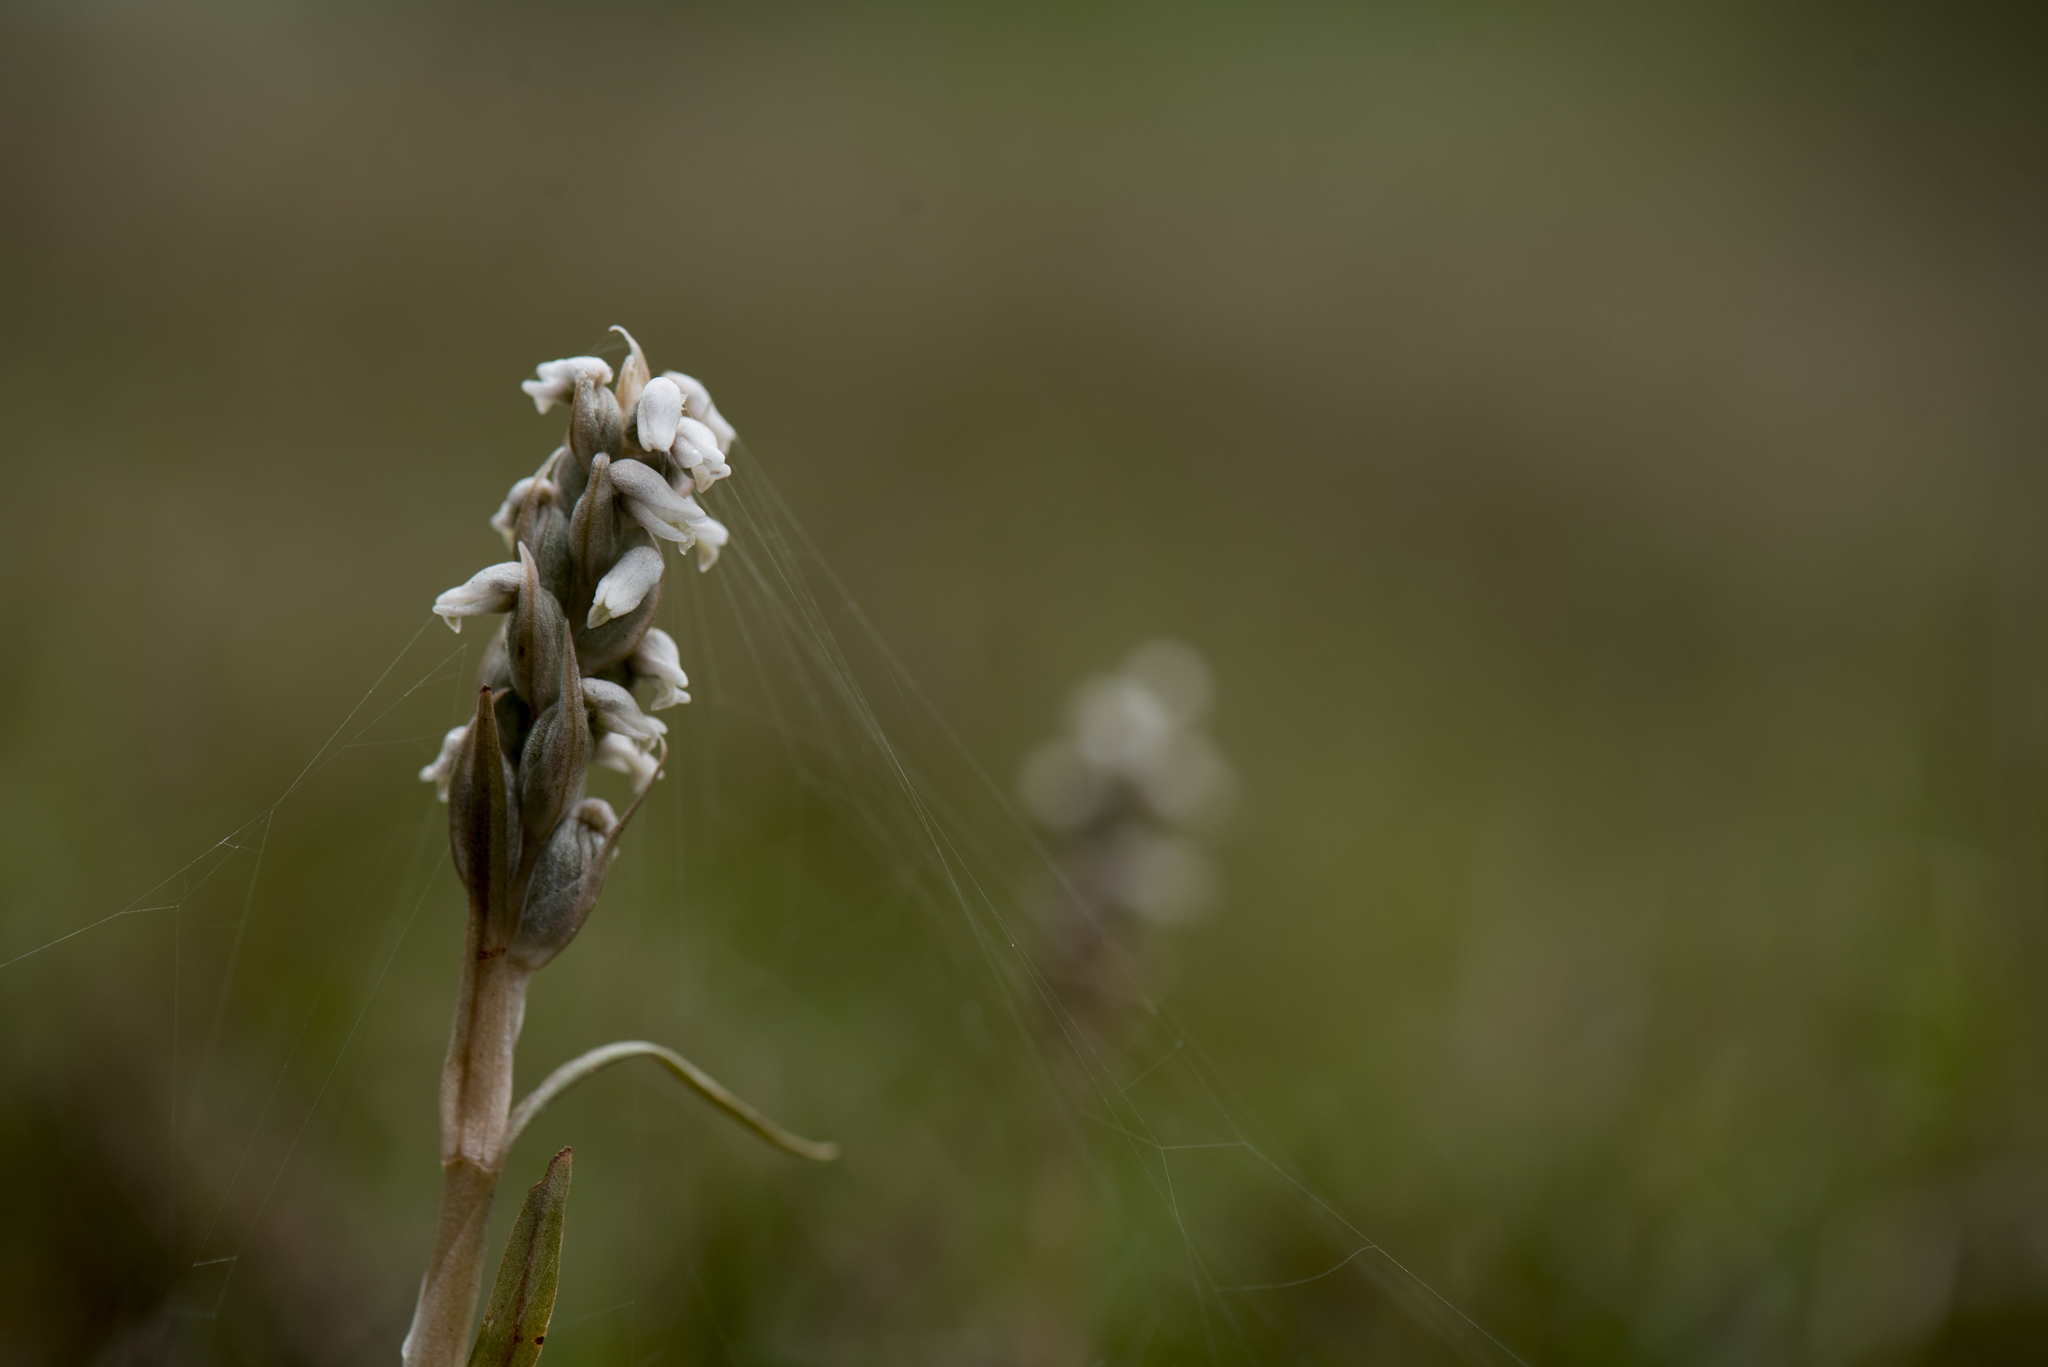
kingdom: Plantae
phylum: Tracheophyta
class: Liliopsida
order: Asparagales
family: Orchidaceae
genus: Zeuxine
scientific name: Zeuxine strateumatica
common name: Soldier's orchid
